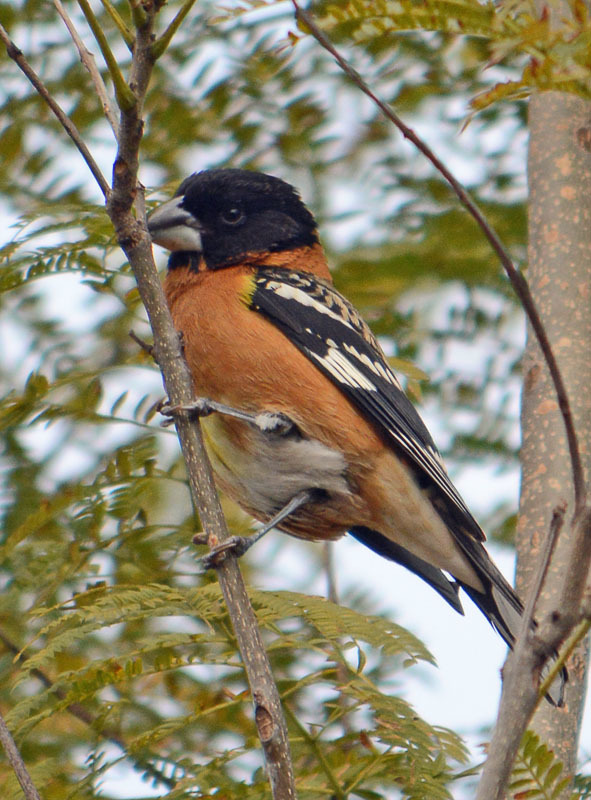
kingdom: Animalia
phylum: Chordata
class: Aves
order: Passeriformes
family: Cardinalidae
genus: Pheucticus
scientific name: Pheucticus melanocephalus
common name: Black-headed grosbeak
